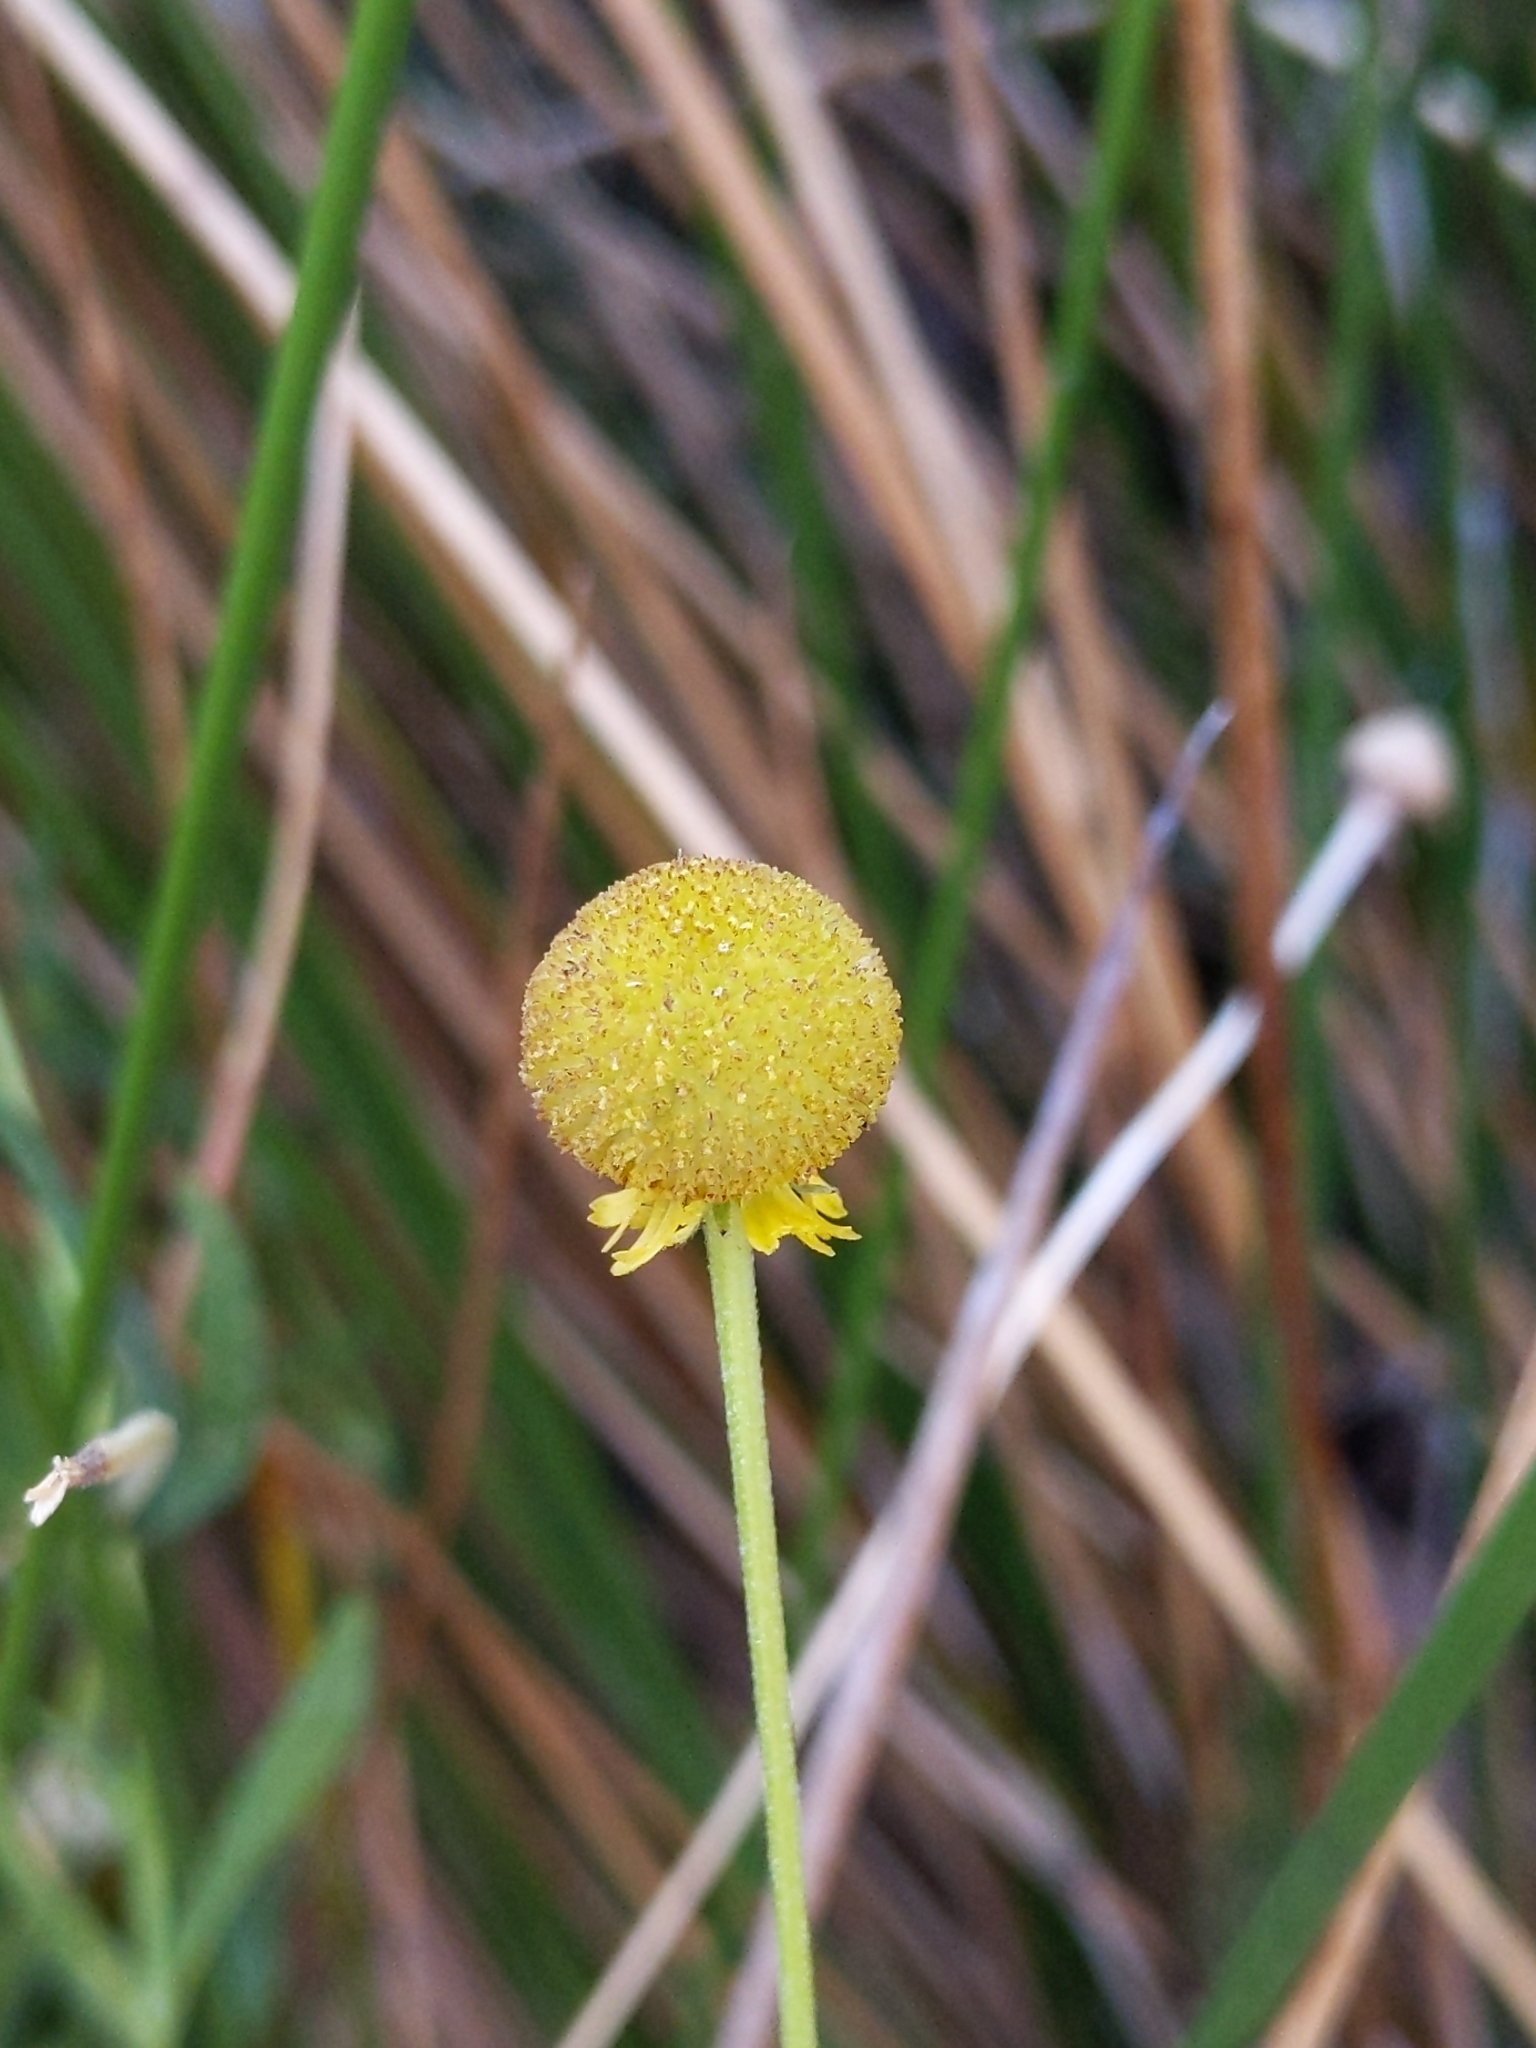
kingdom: Plantae
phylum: Tracheophyta
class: Magnoliopsida
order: Asterales
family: Asteraceae
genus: Helenium
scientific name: Helenium puberulum
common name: Sneezewort
